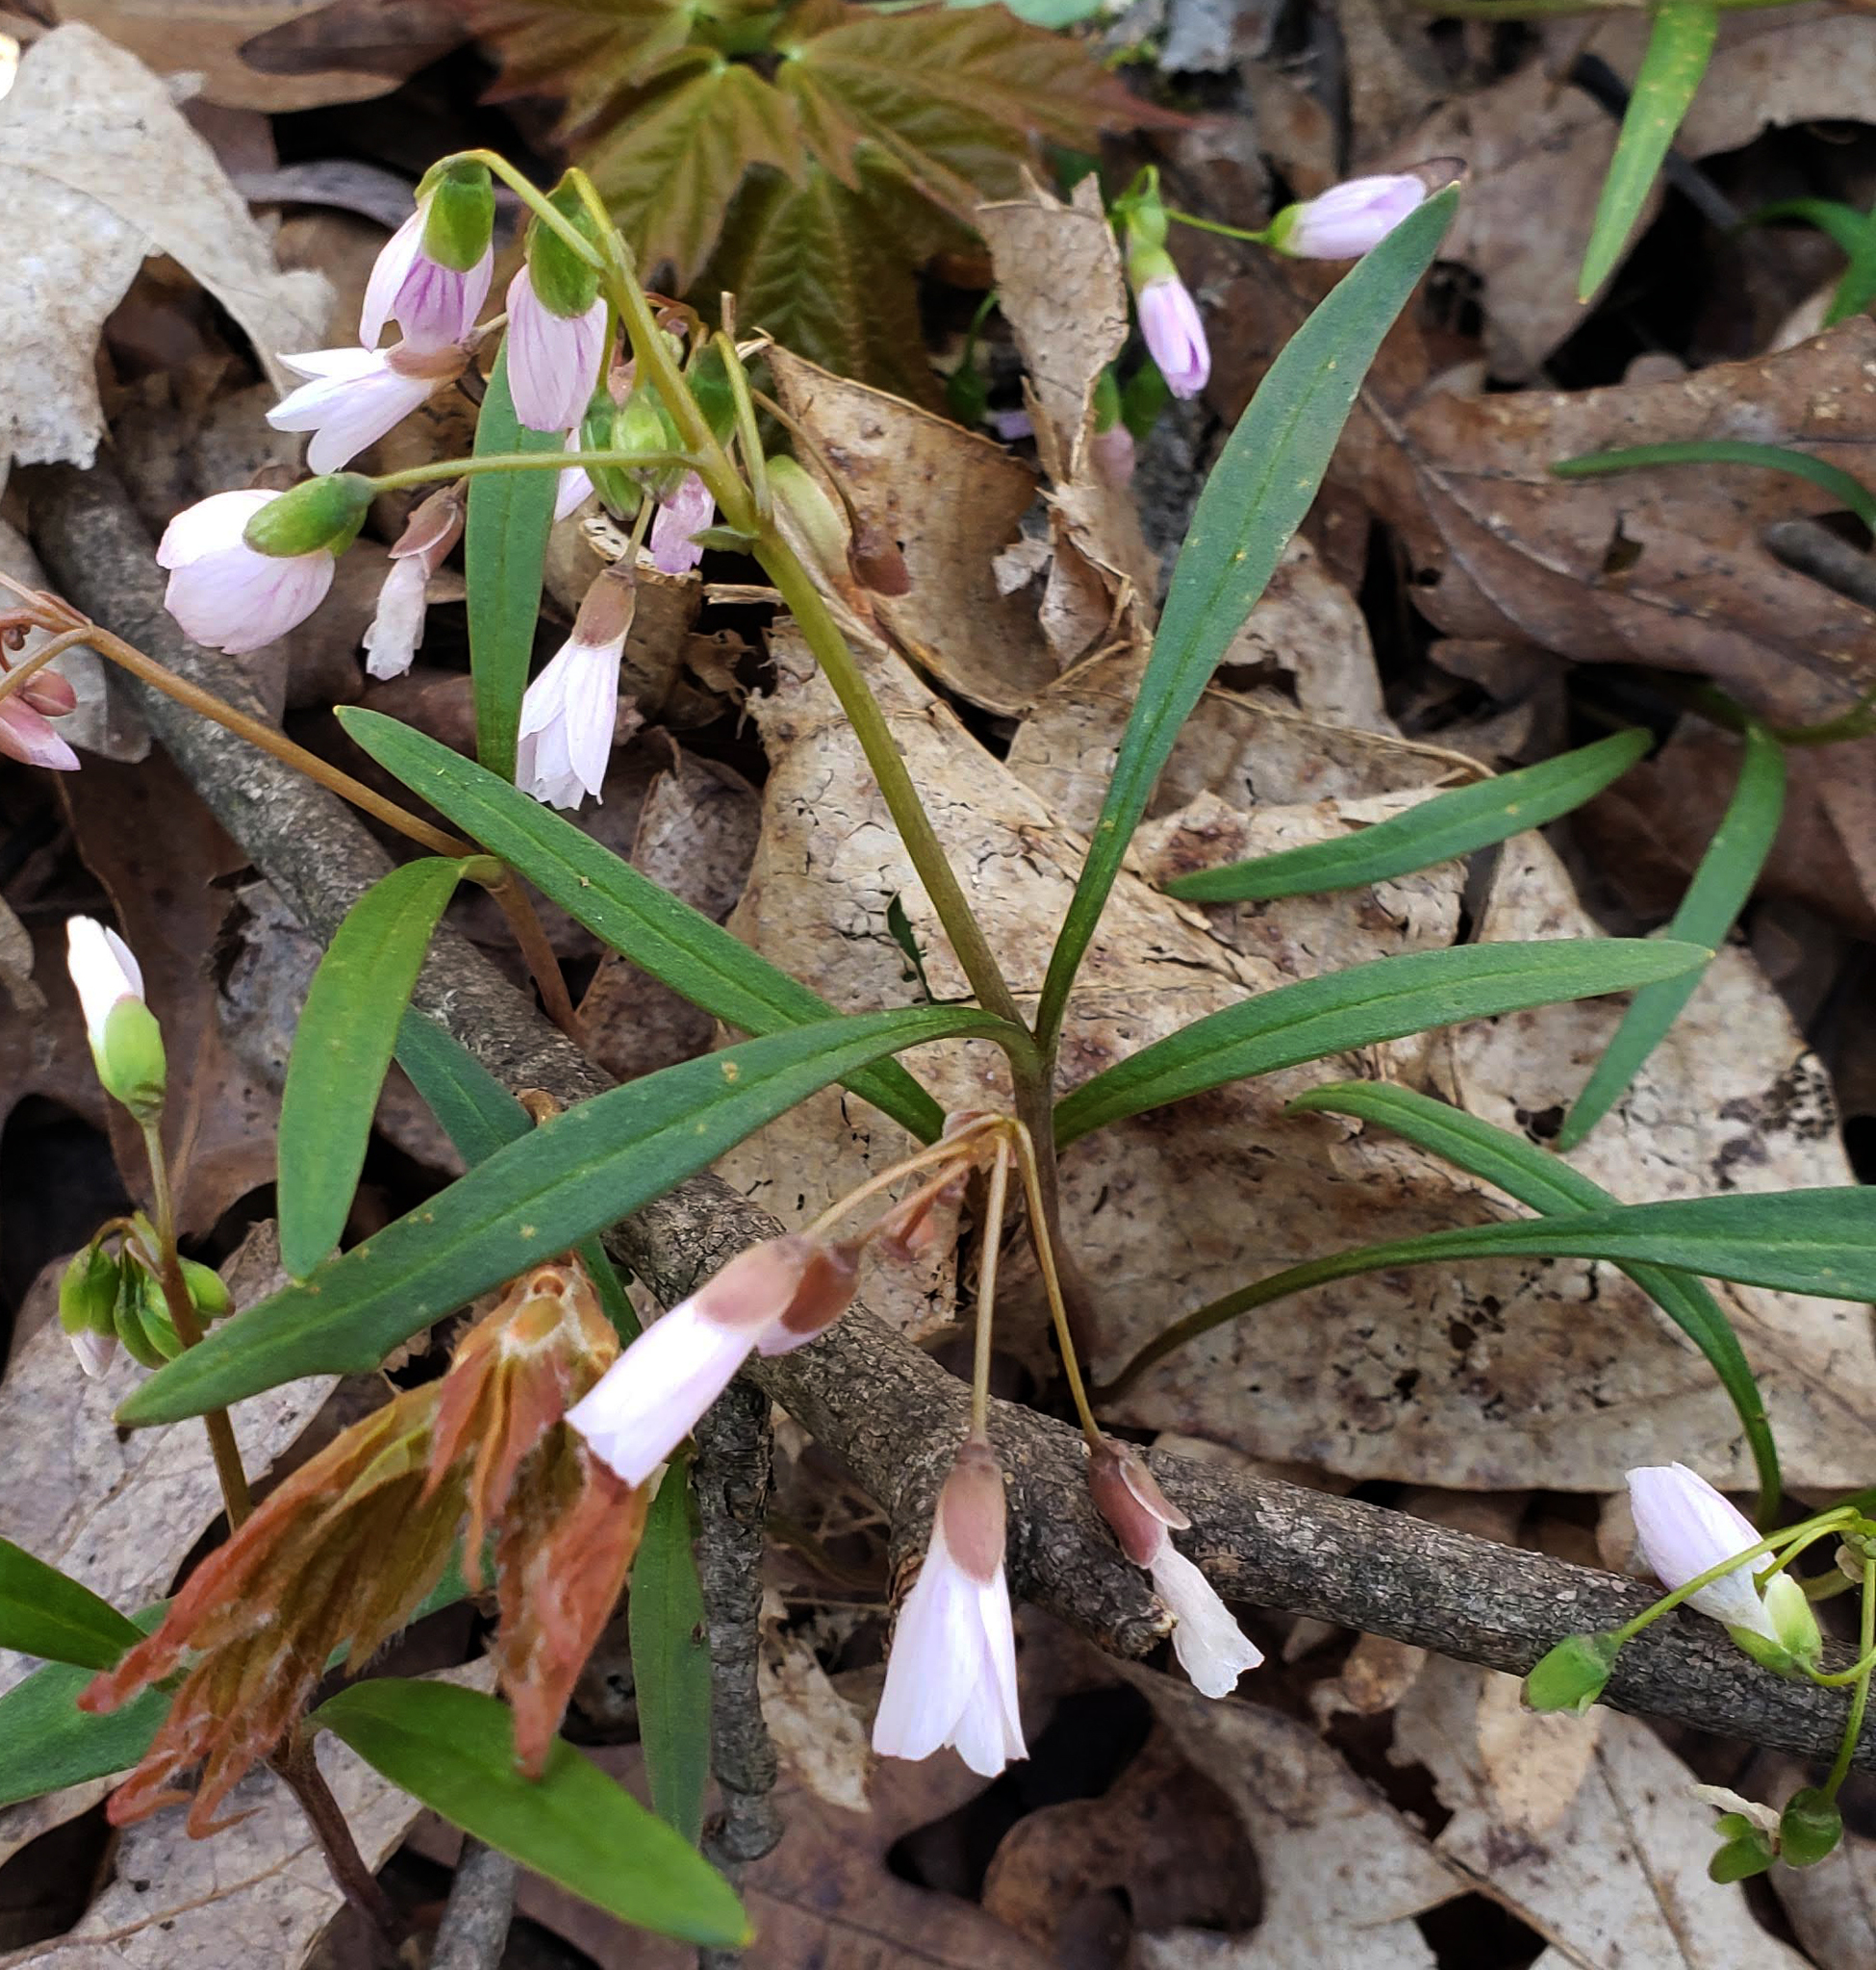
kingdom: Plantae
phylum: Tracheophyta
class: Magnoliopsida
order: Caryophyllales
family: Montiaceae
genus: Claytonia
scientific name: Claytonia virginica
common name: Virginia springbeauty
